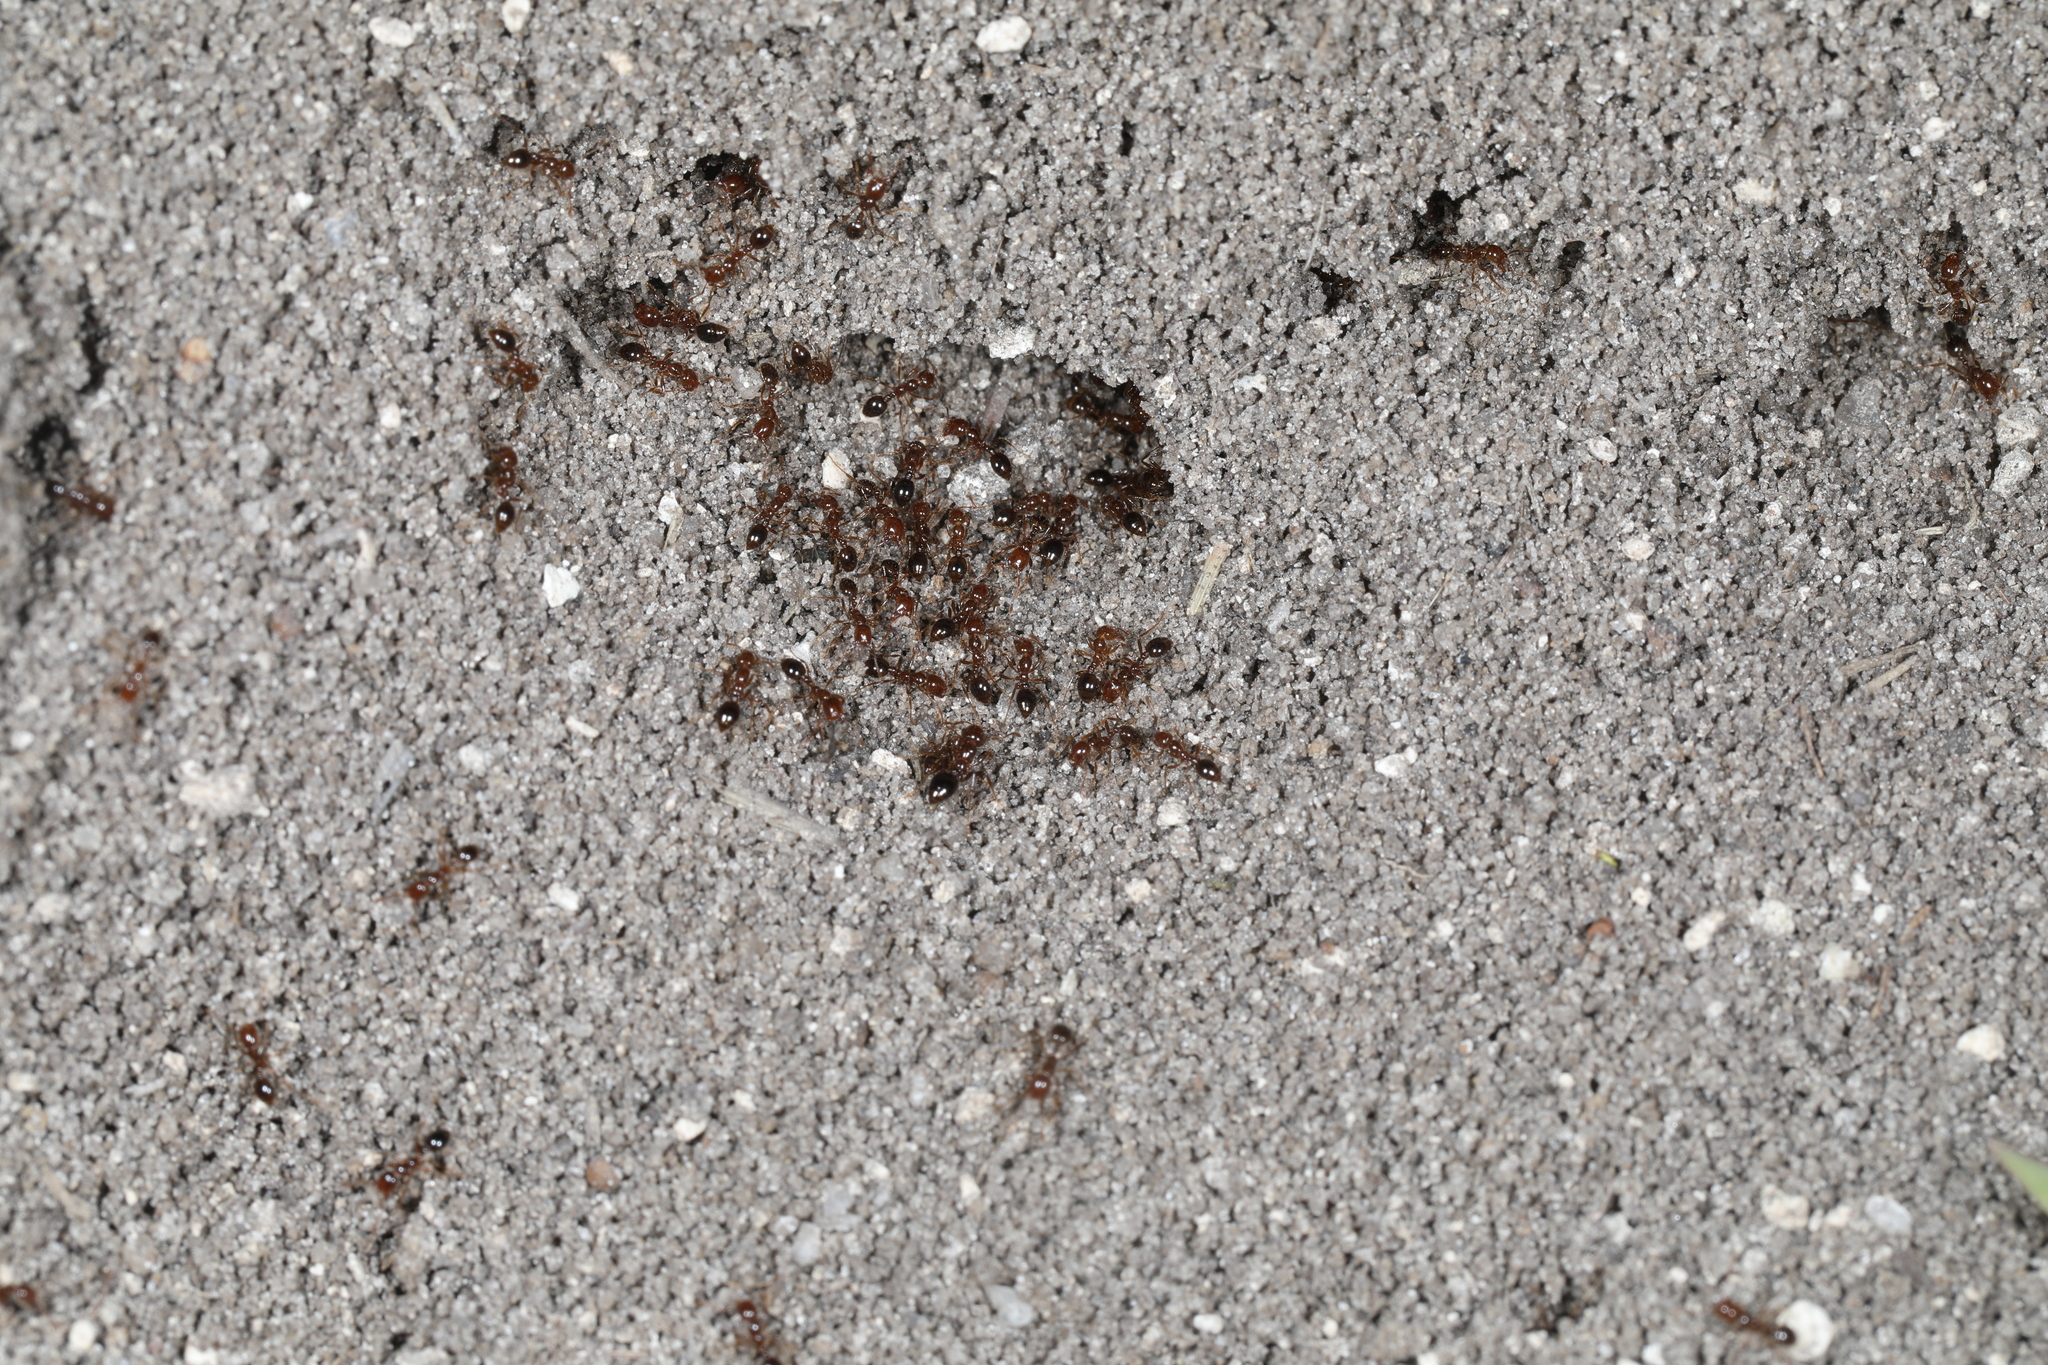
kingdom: Animalia
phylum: Arthropoda
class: Insecta
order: Hymenoptera
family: Formicidae
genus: Solenopsis
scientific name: Solenopsis invicta
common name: Red imported fire ant
